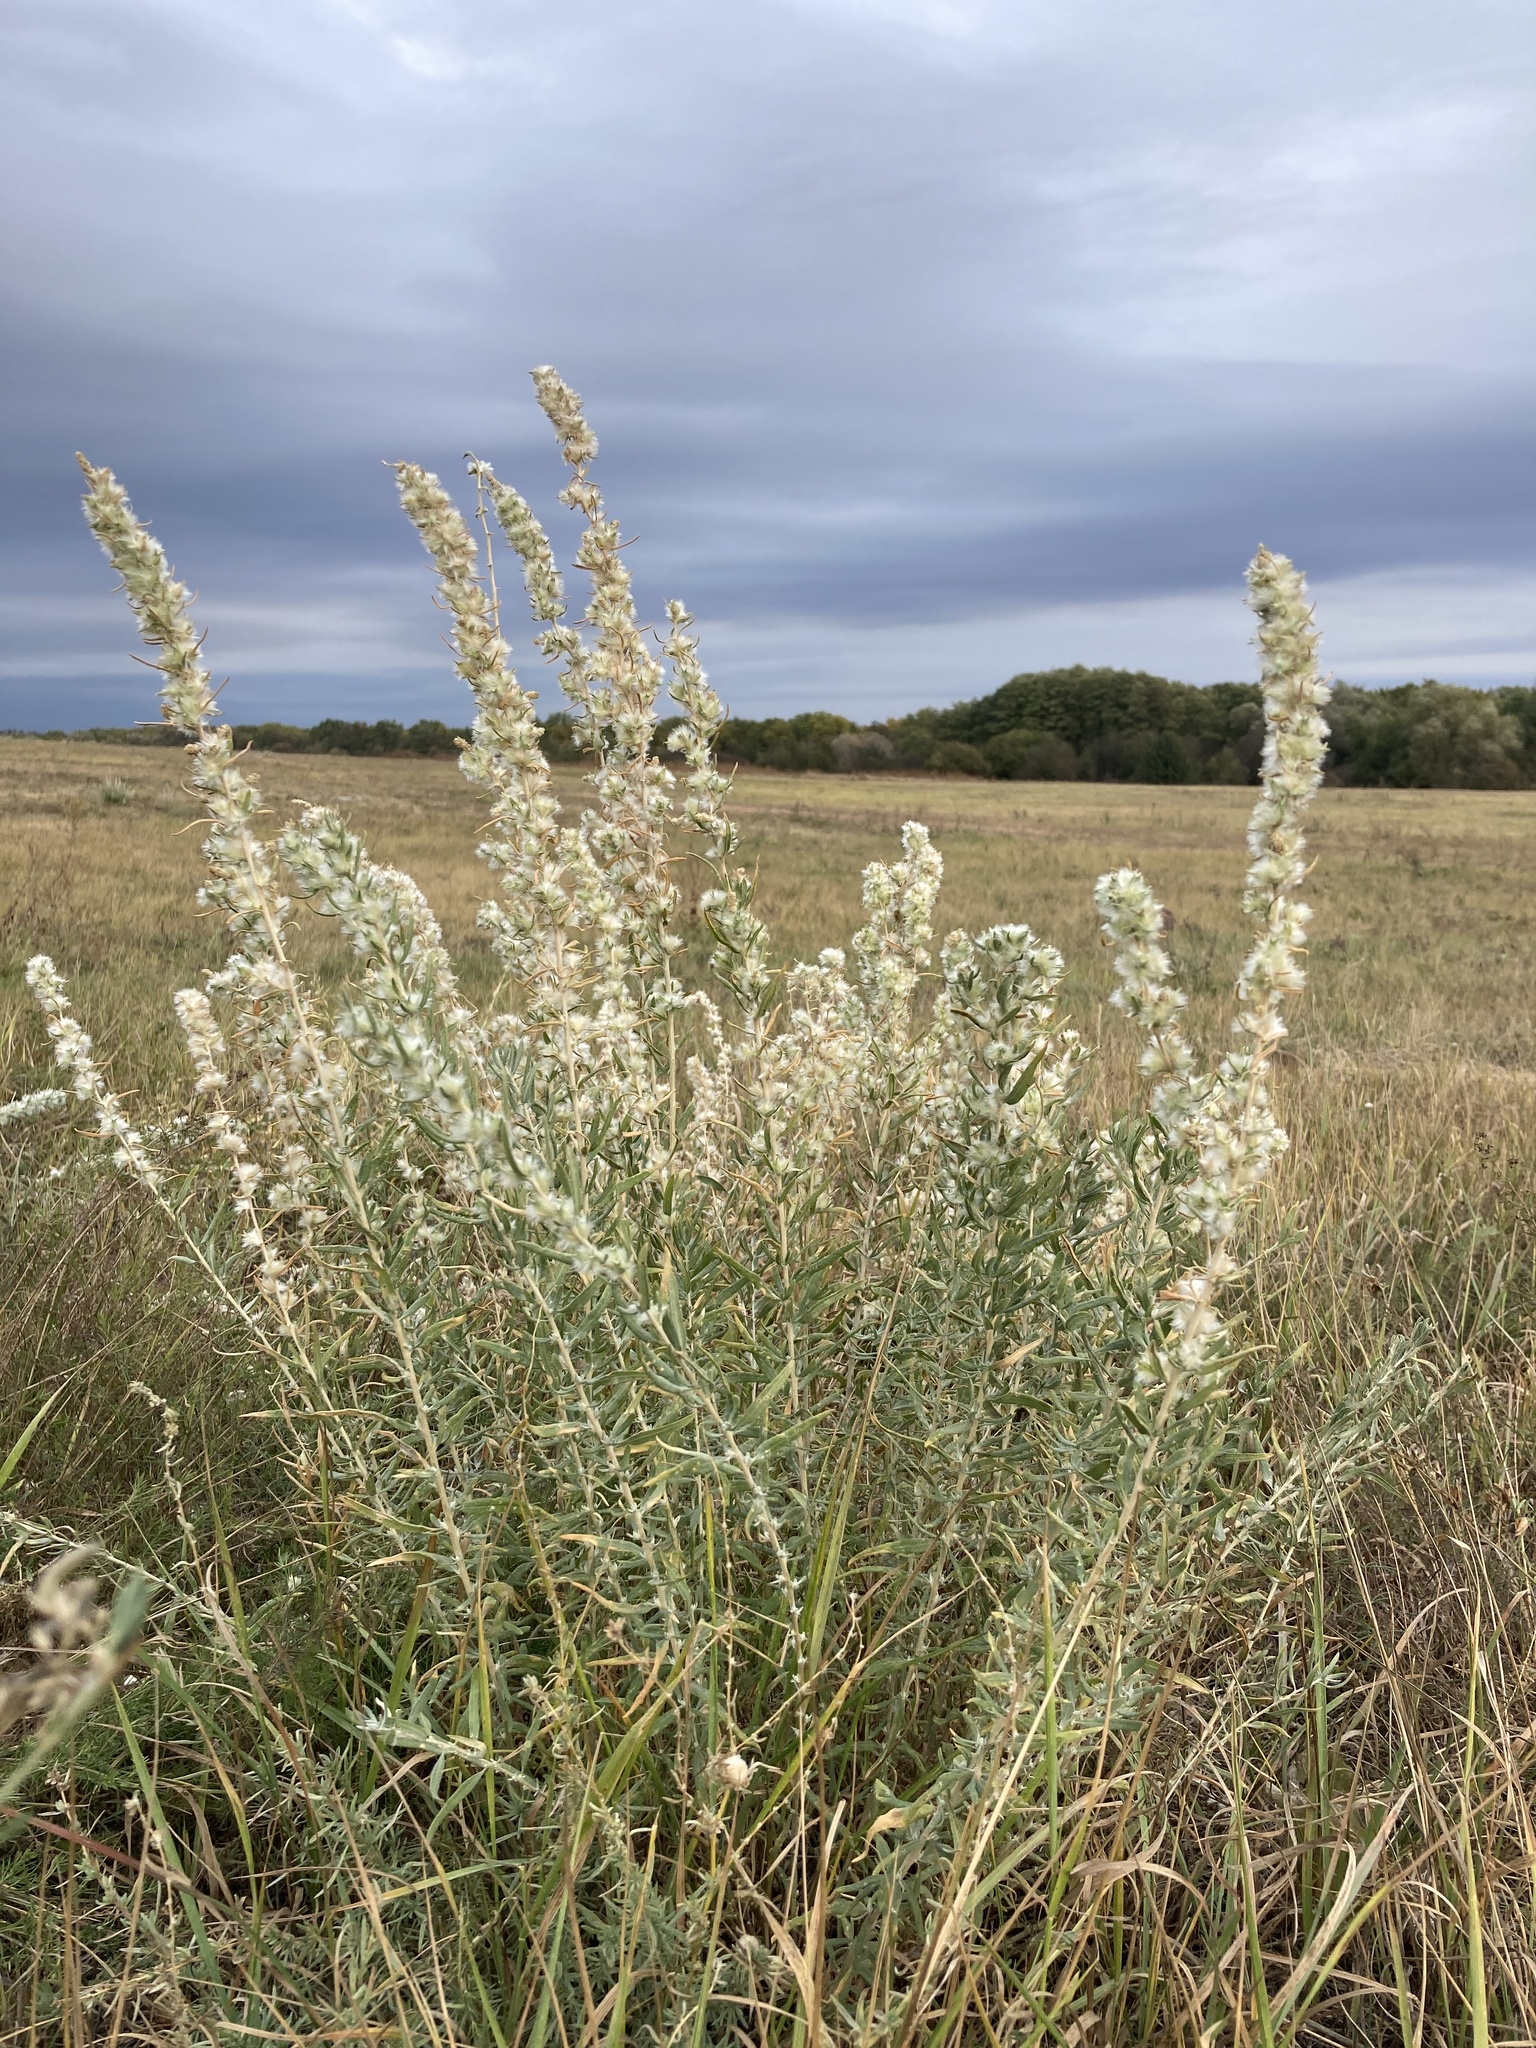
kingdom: Plantae
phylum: Tracheophyta
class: Magnoliopsida
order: Caryophyllales
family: Amaranthaceae
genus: Krascheninnikovia
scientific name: Krascheninnikovia ceratoides
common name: Pamirian winterfat
